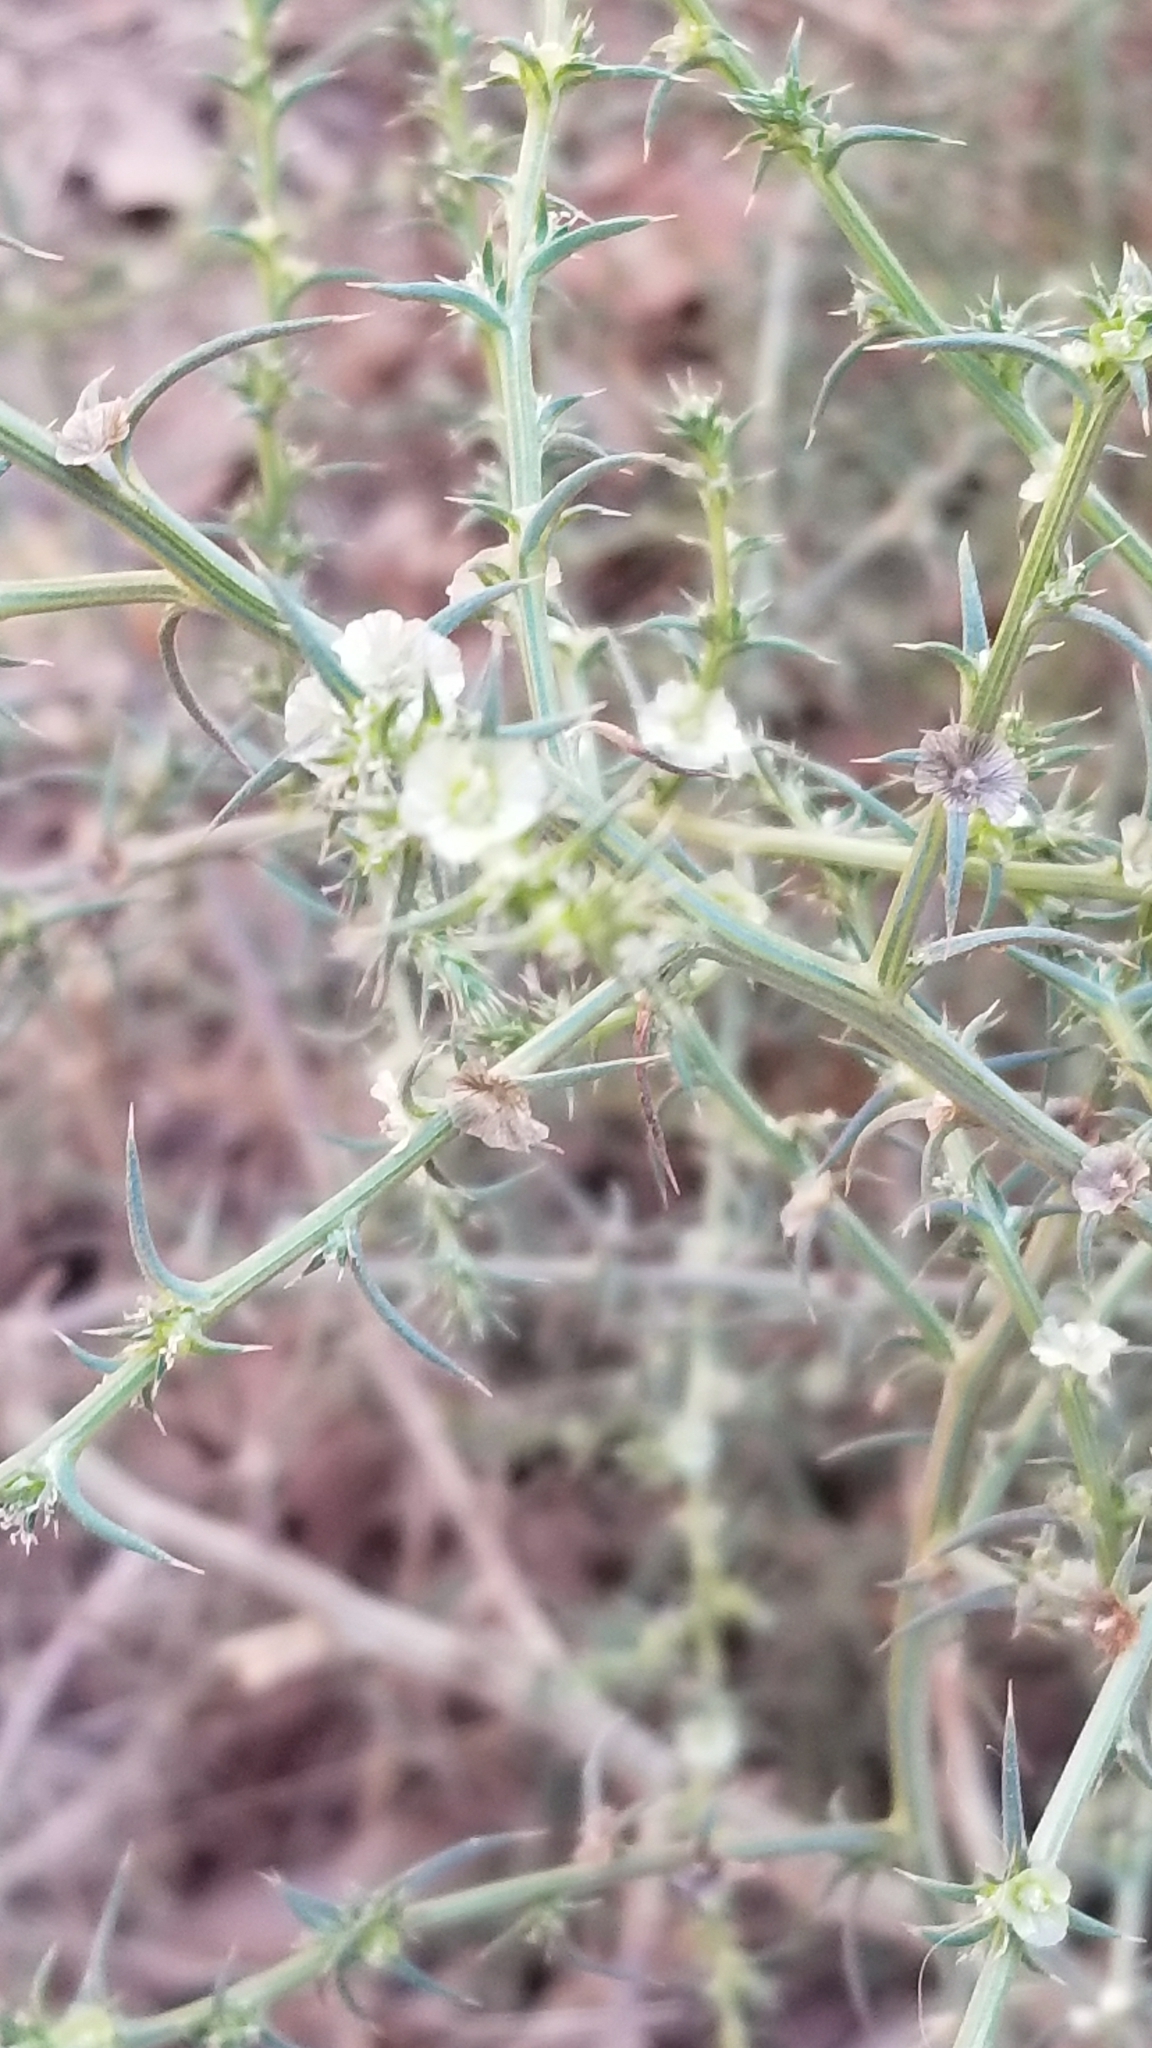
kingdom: Plantae
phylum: Tracheophyta
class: Magnoliopsida
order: Caryophyllales
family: Amaranthaceae
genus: Salsola
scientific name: Salsola australis
